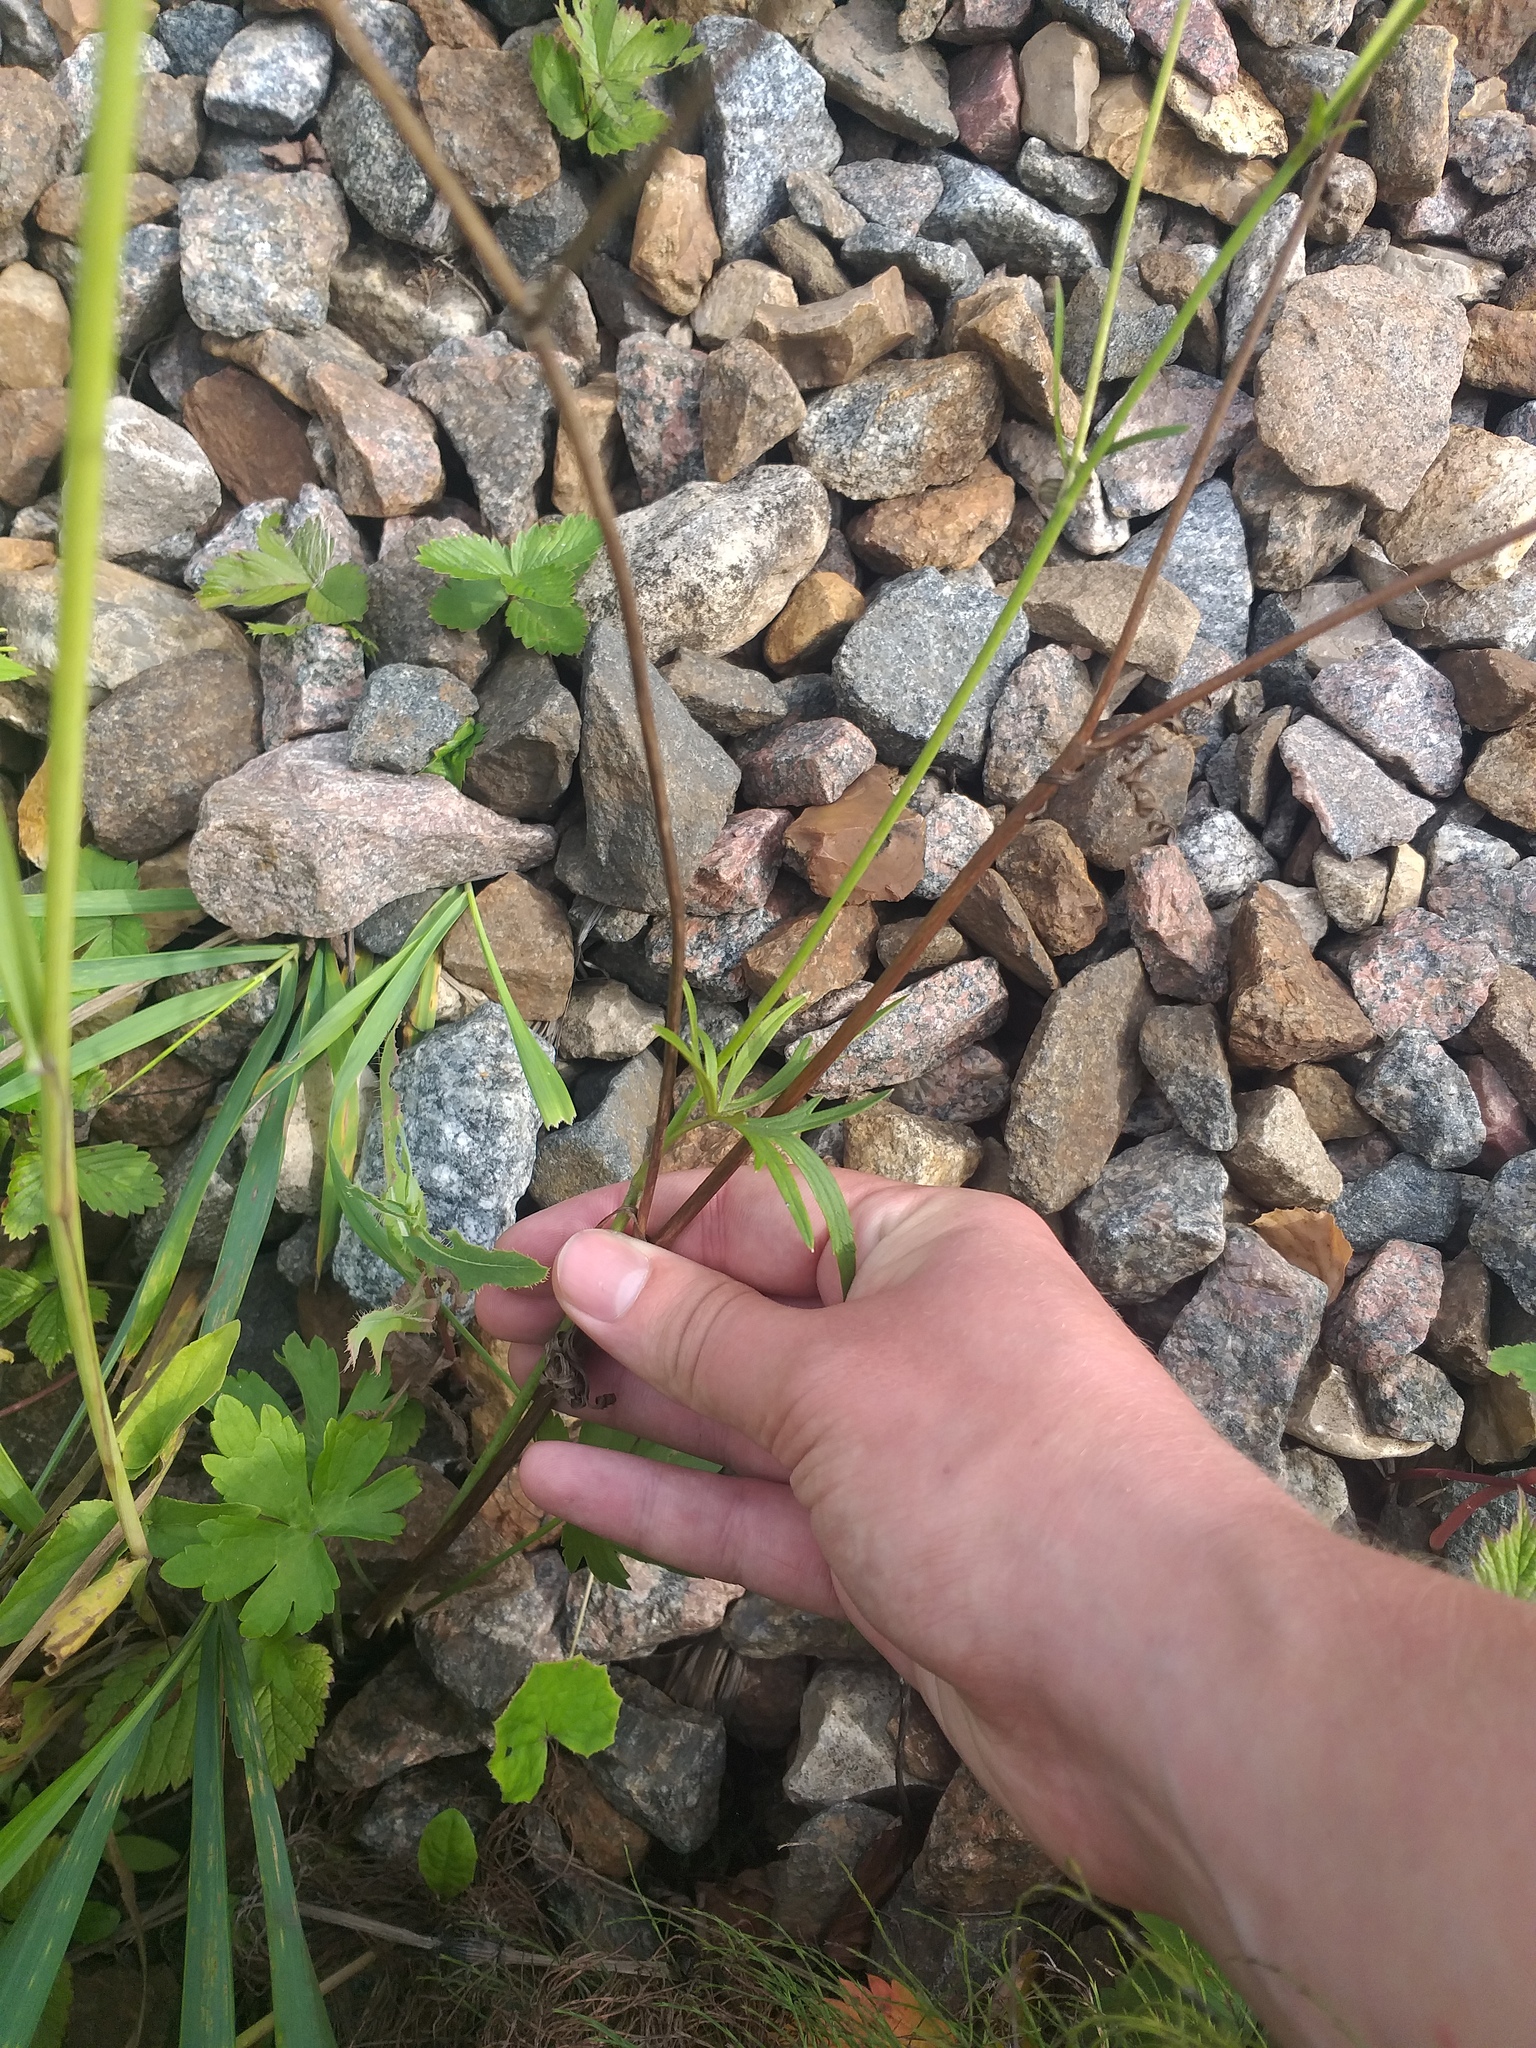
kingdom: Plantae
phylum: Tracheophyta
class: Magnoliopsida
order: Ranunculales
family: Ranunculaceae
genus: Ranunculus
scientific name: Ranunculus acris
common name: Meadow buttercup
